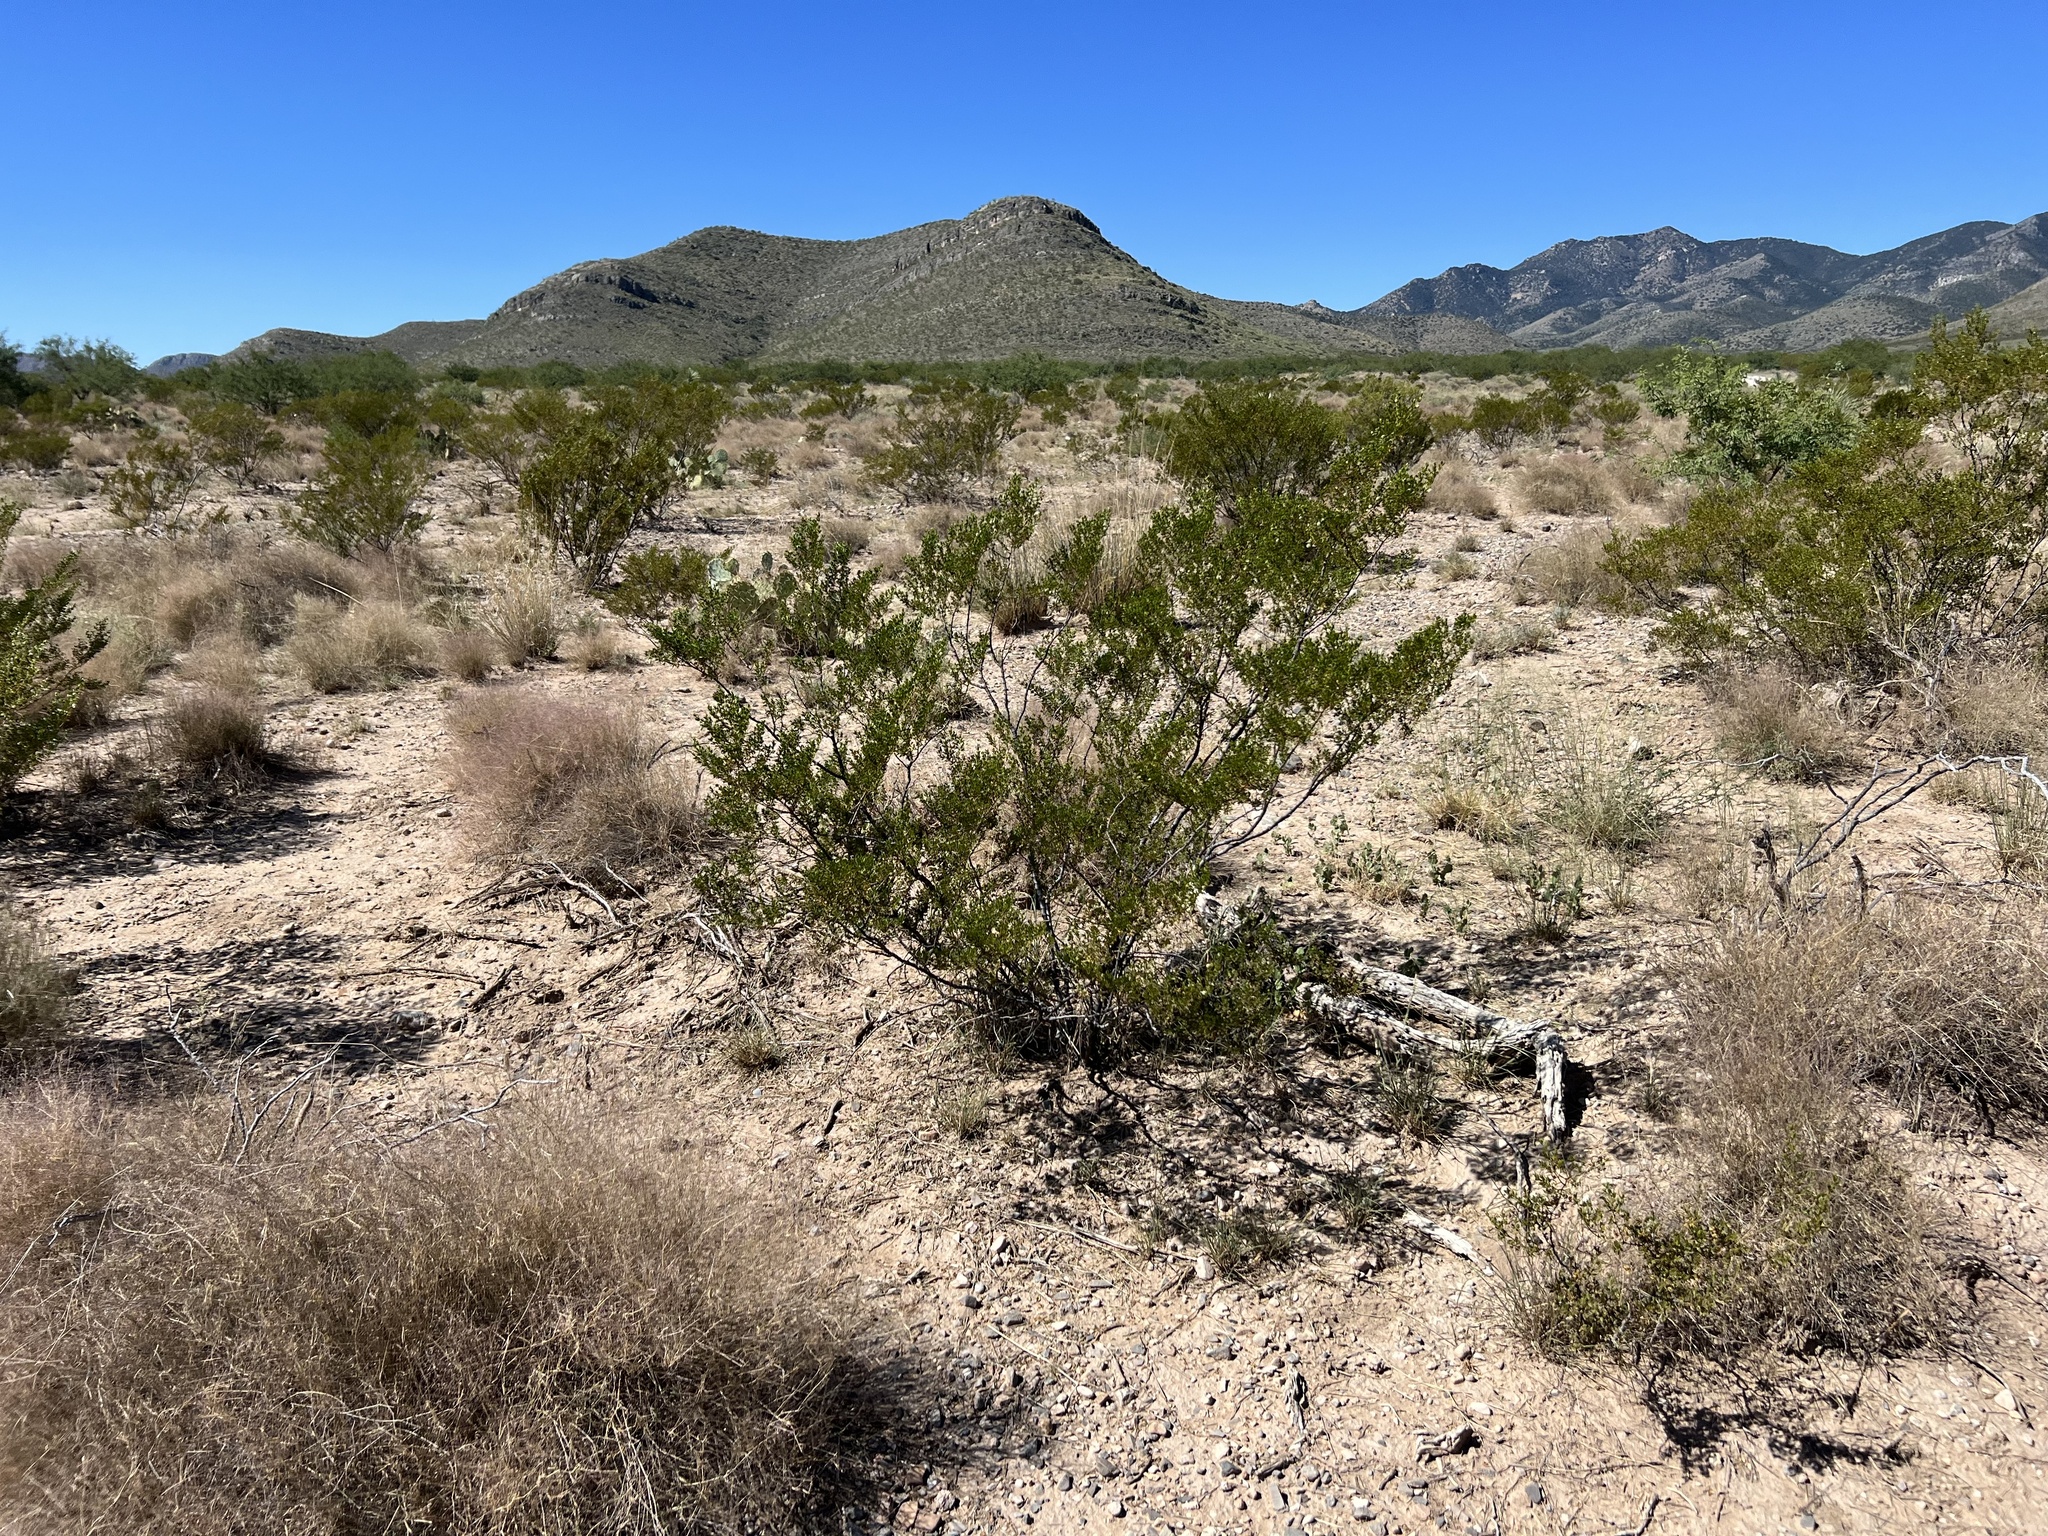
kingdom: Plantae
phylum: Tracheophyta
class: Magnoliopsida
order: Zygophyllales
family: Zygophyllaceae
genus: Larrea
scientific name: Larrea tridentata
